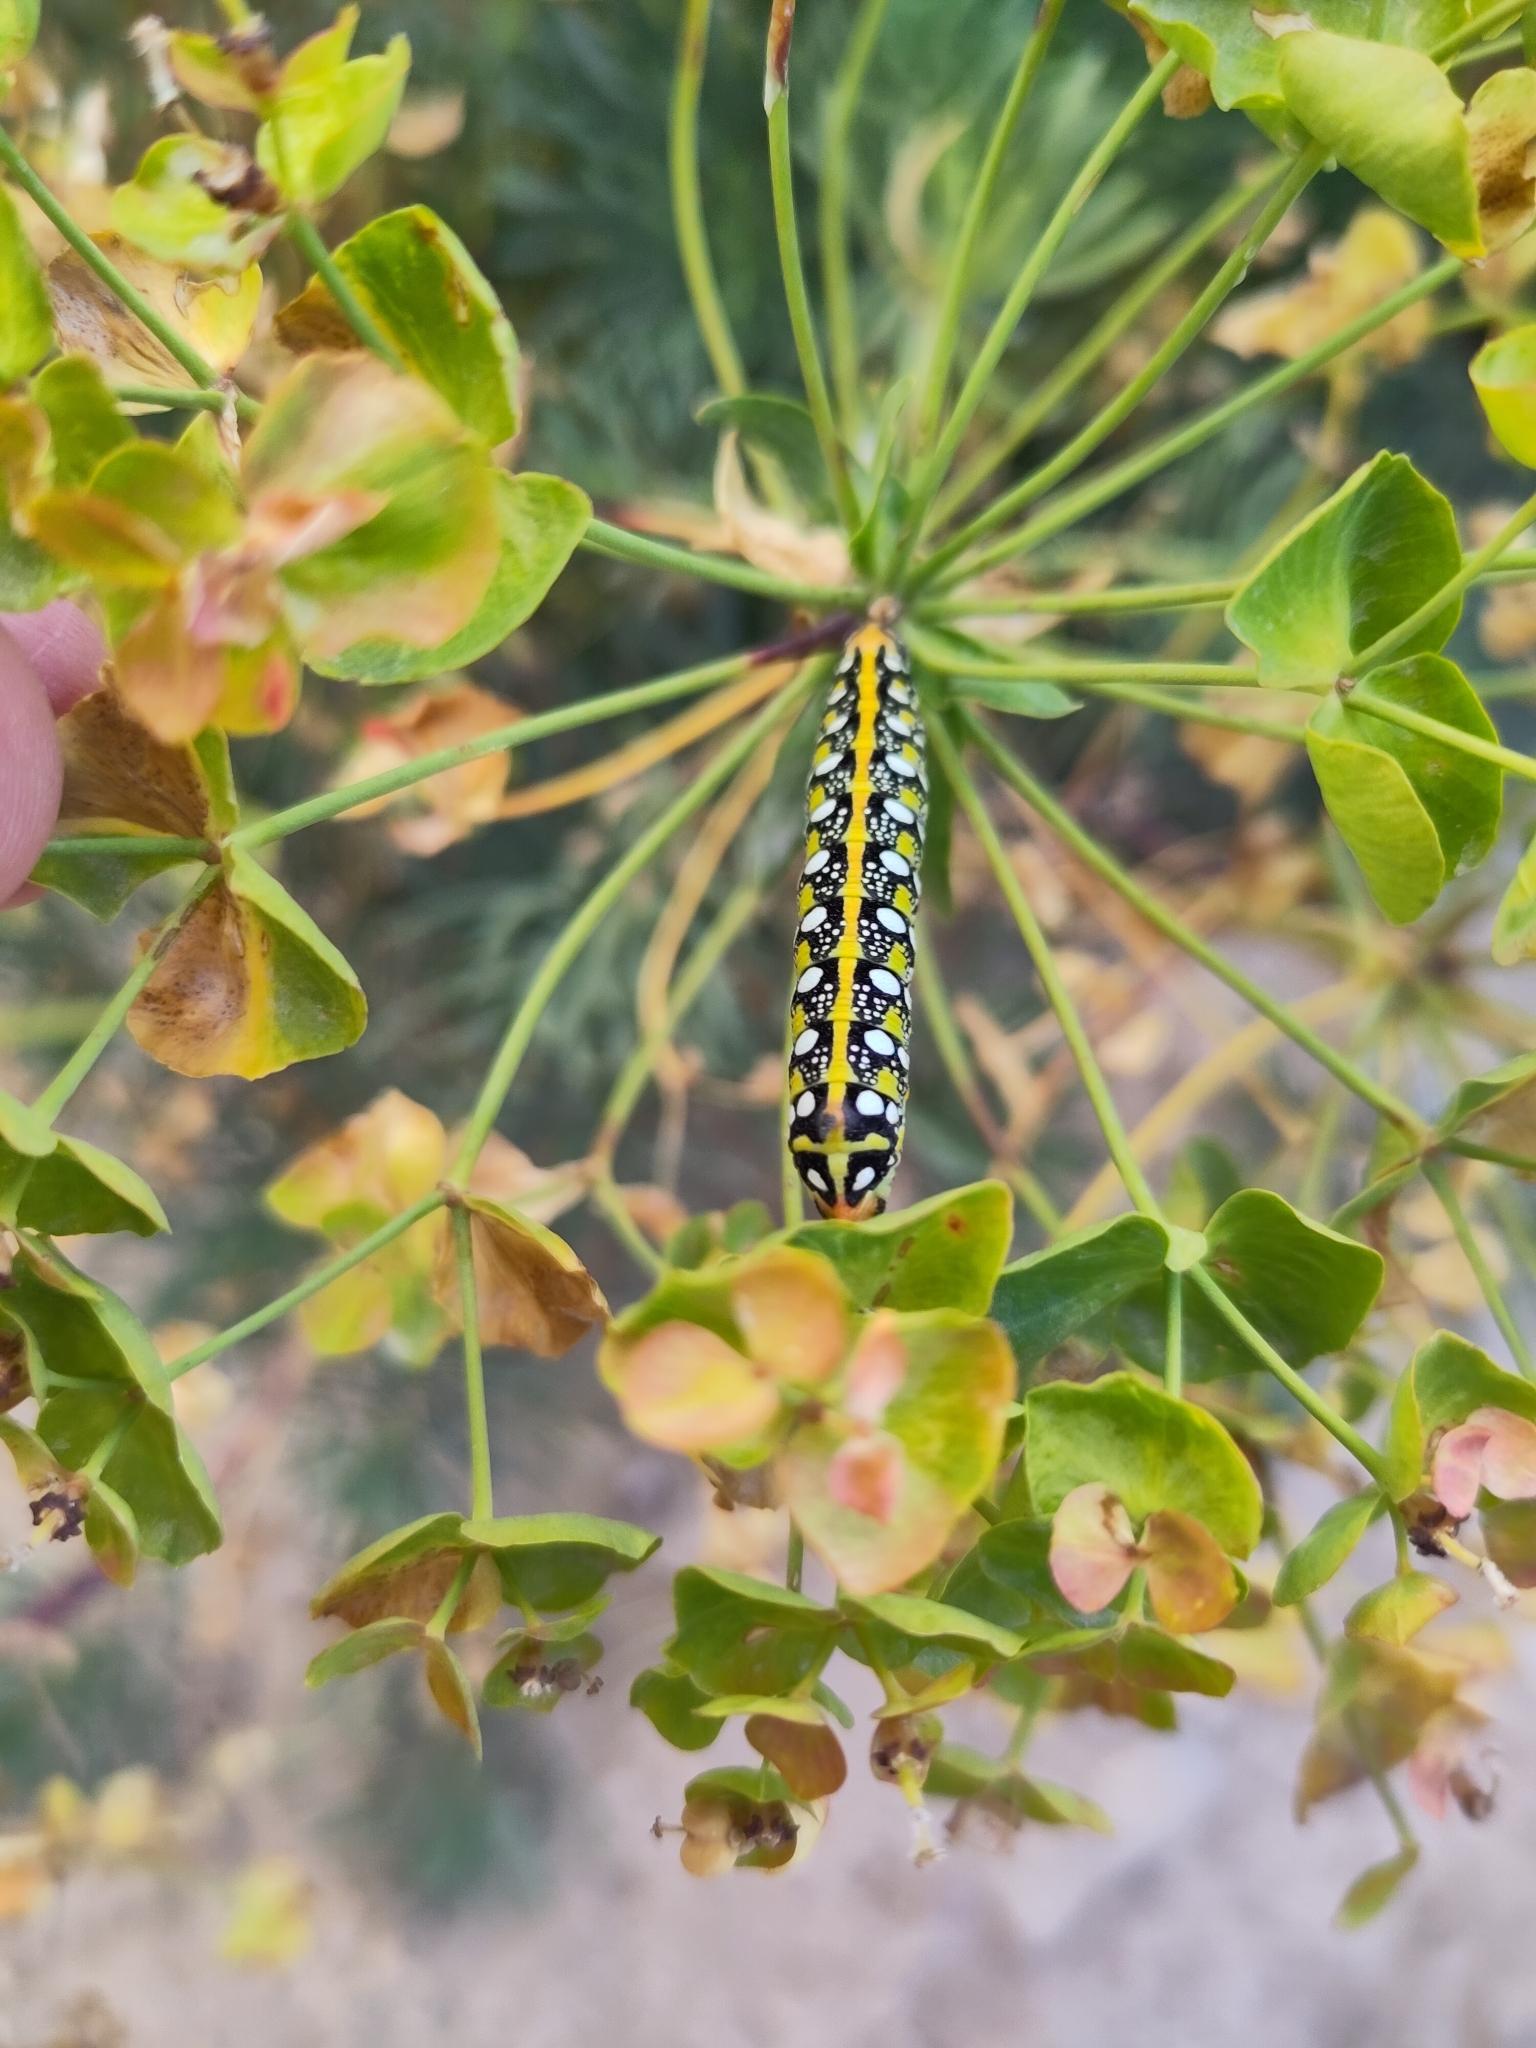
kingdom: Animalia
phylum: Arthropoda
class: Insecta
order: Lepidoptera
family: Sphingidae
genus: Hyles
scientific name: Hyles euphorbiae
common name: Spurge hawk-moth
